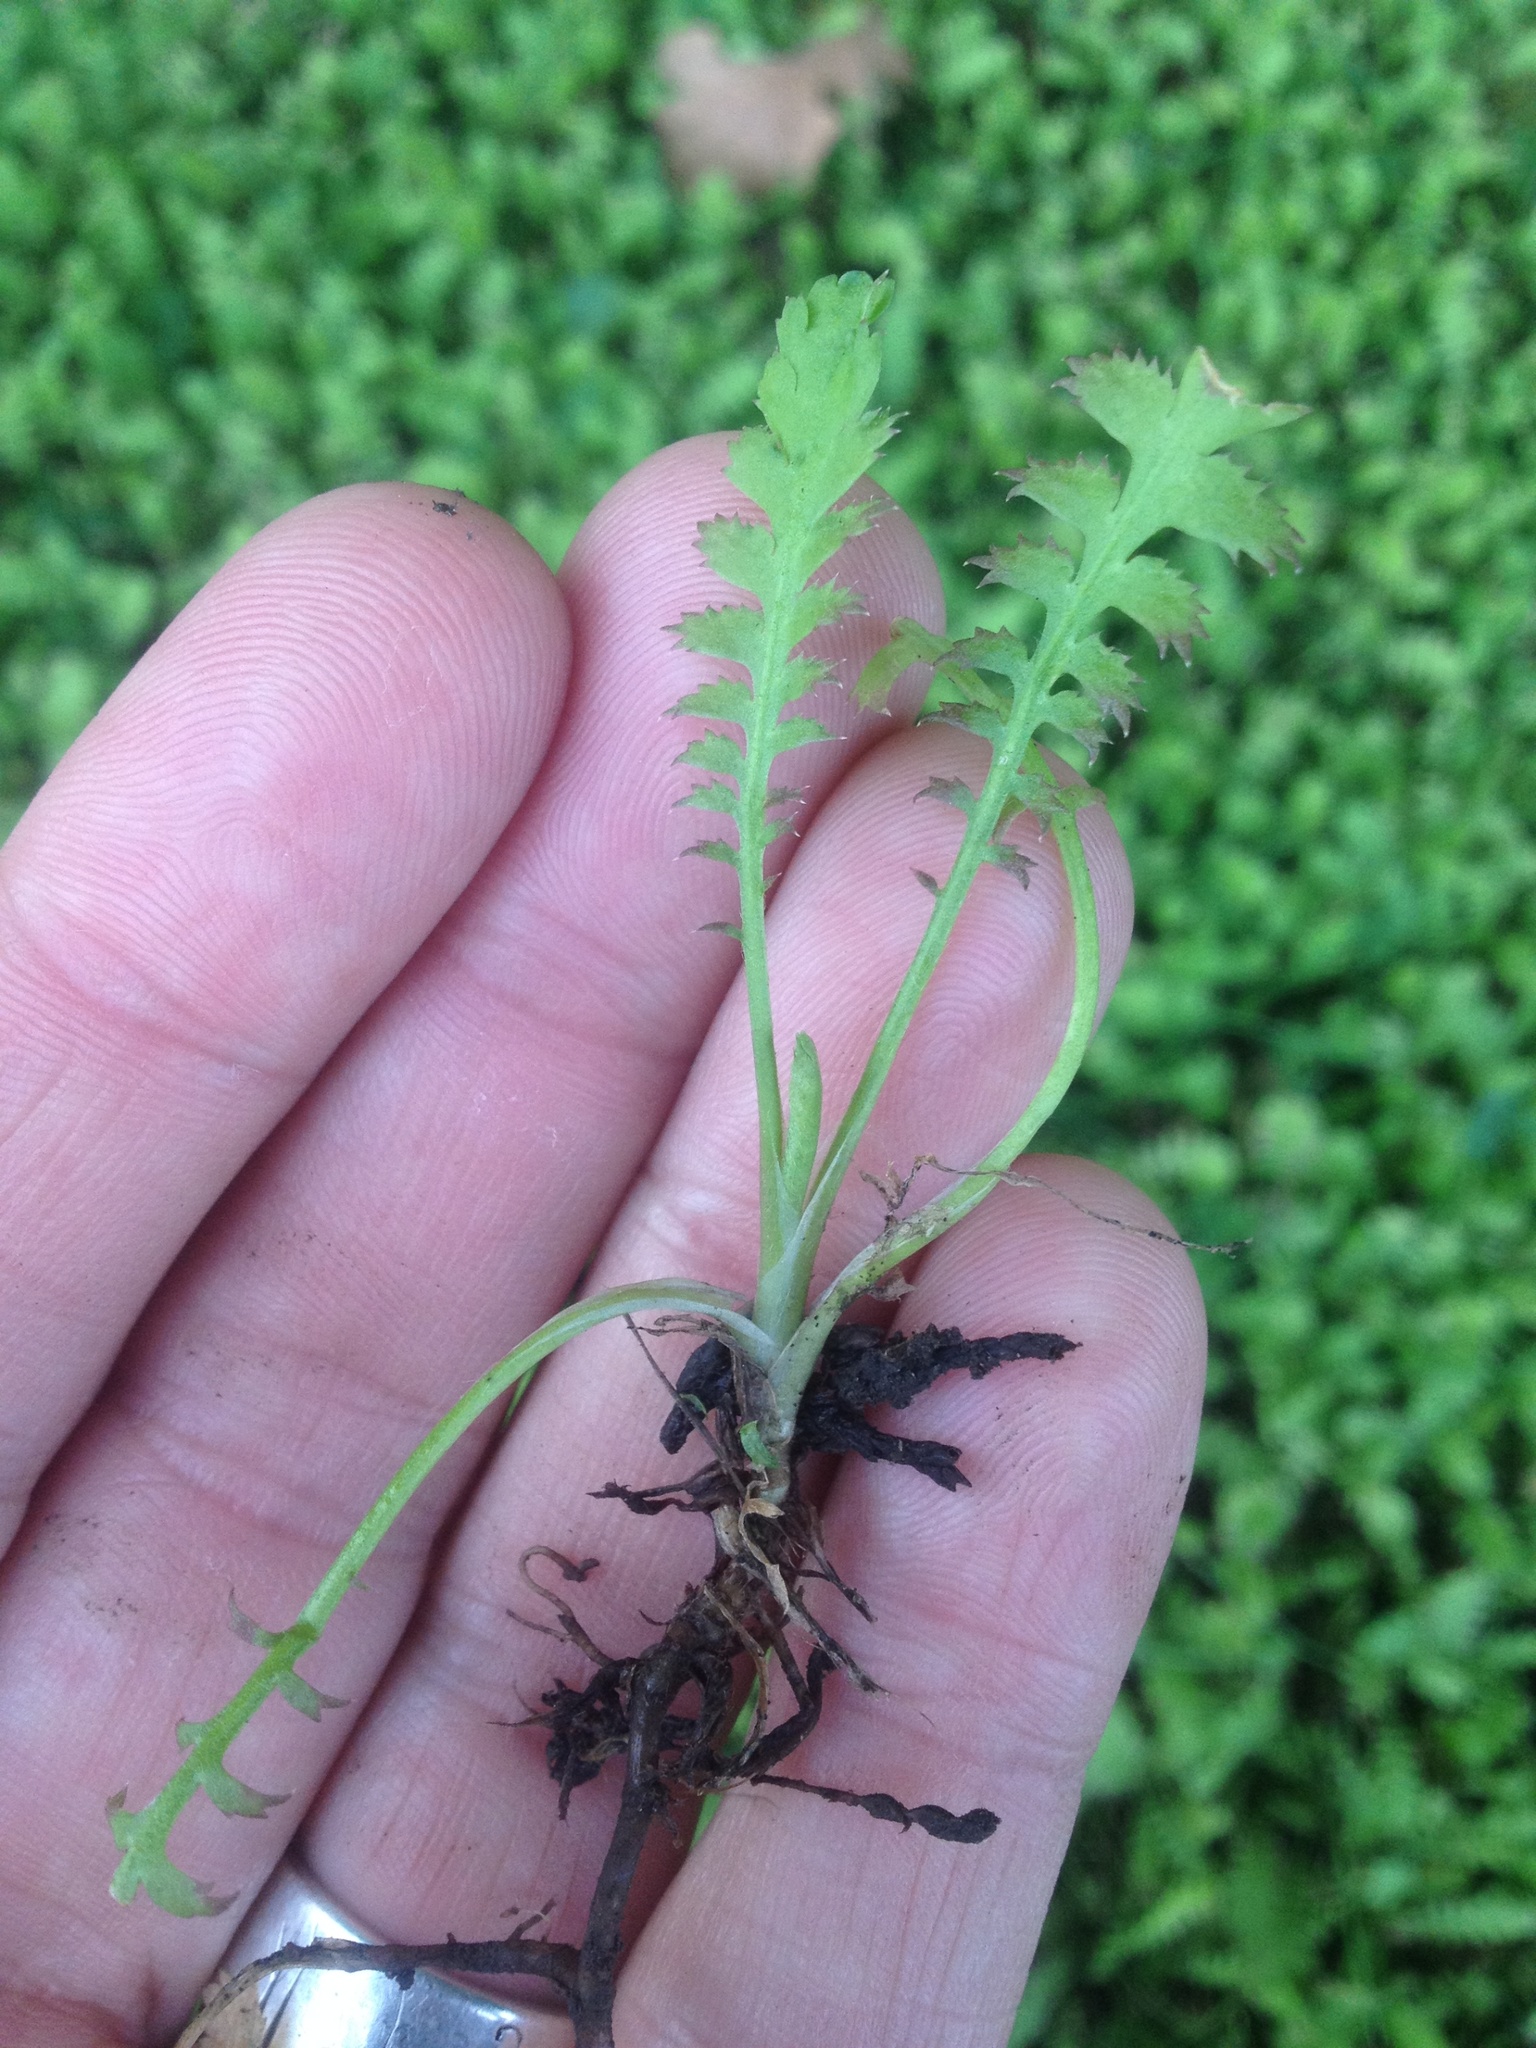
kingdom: Plantae
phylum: Tracheophyta
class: Magnoliopsida
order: Asterales
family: Asteraceae
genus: Leptinella
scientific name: Leptinella squalida
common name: New zealand brass-buttons
